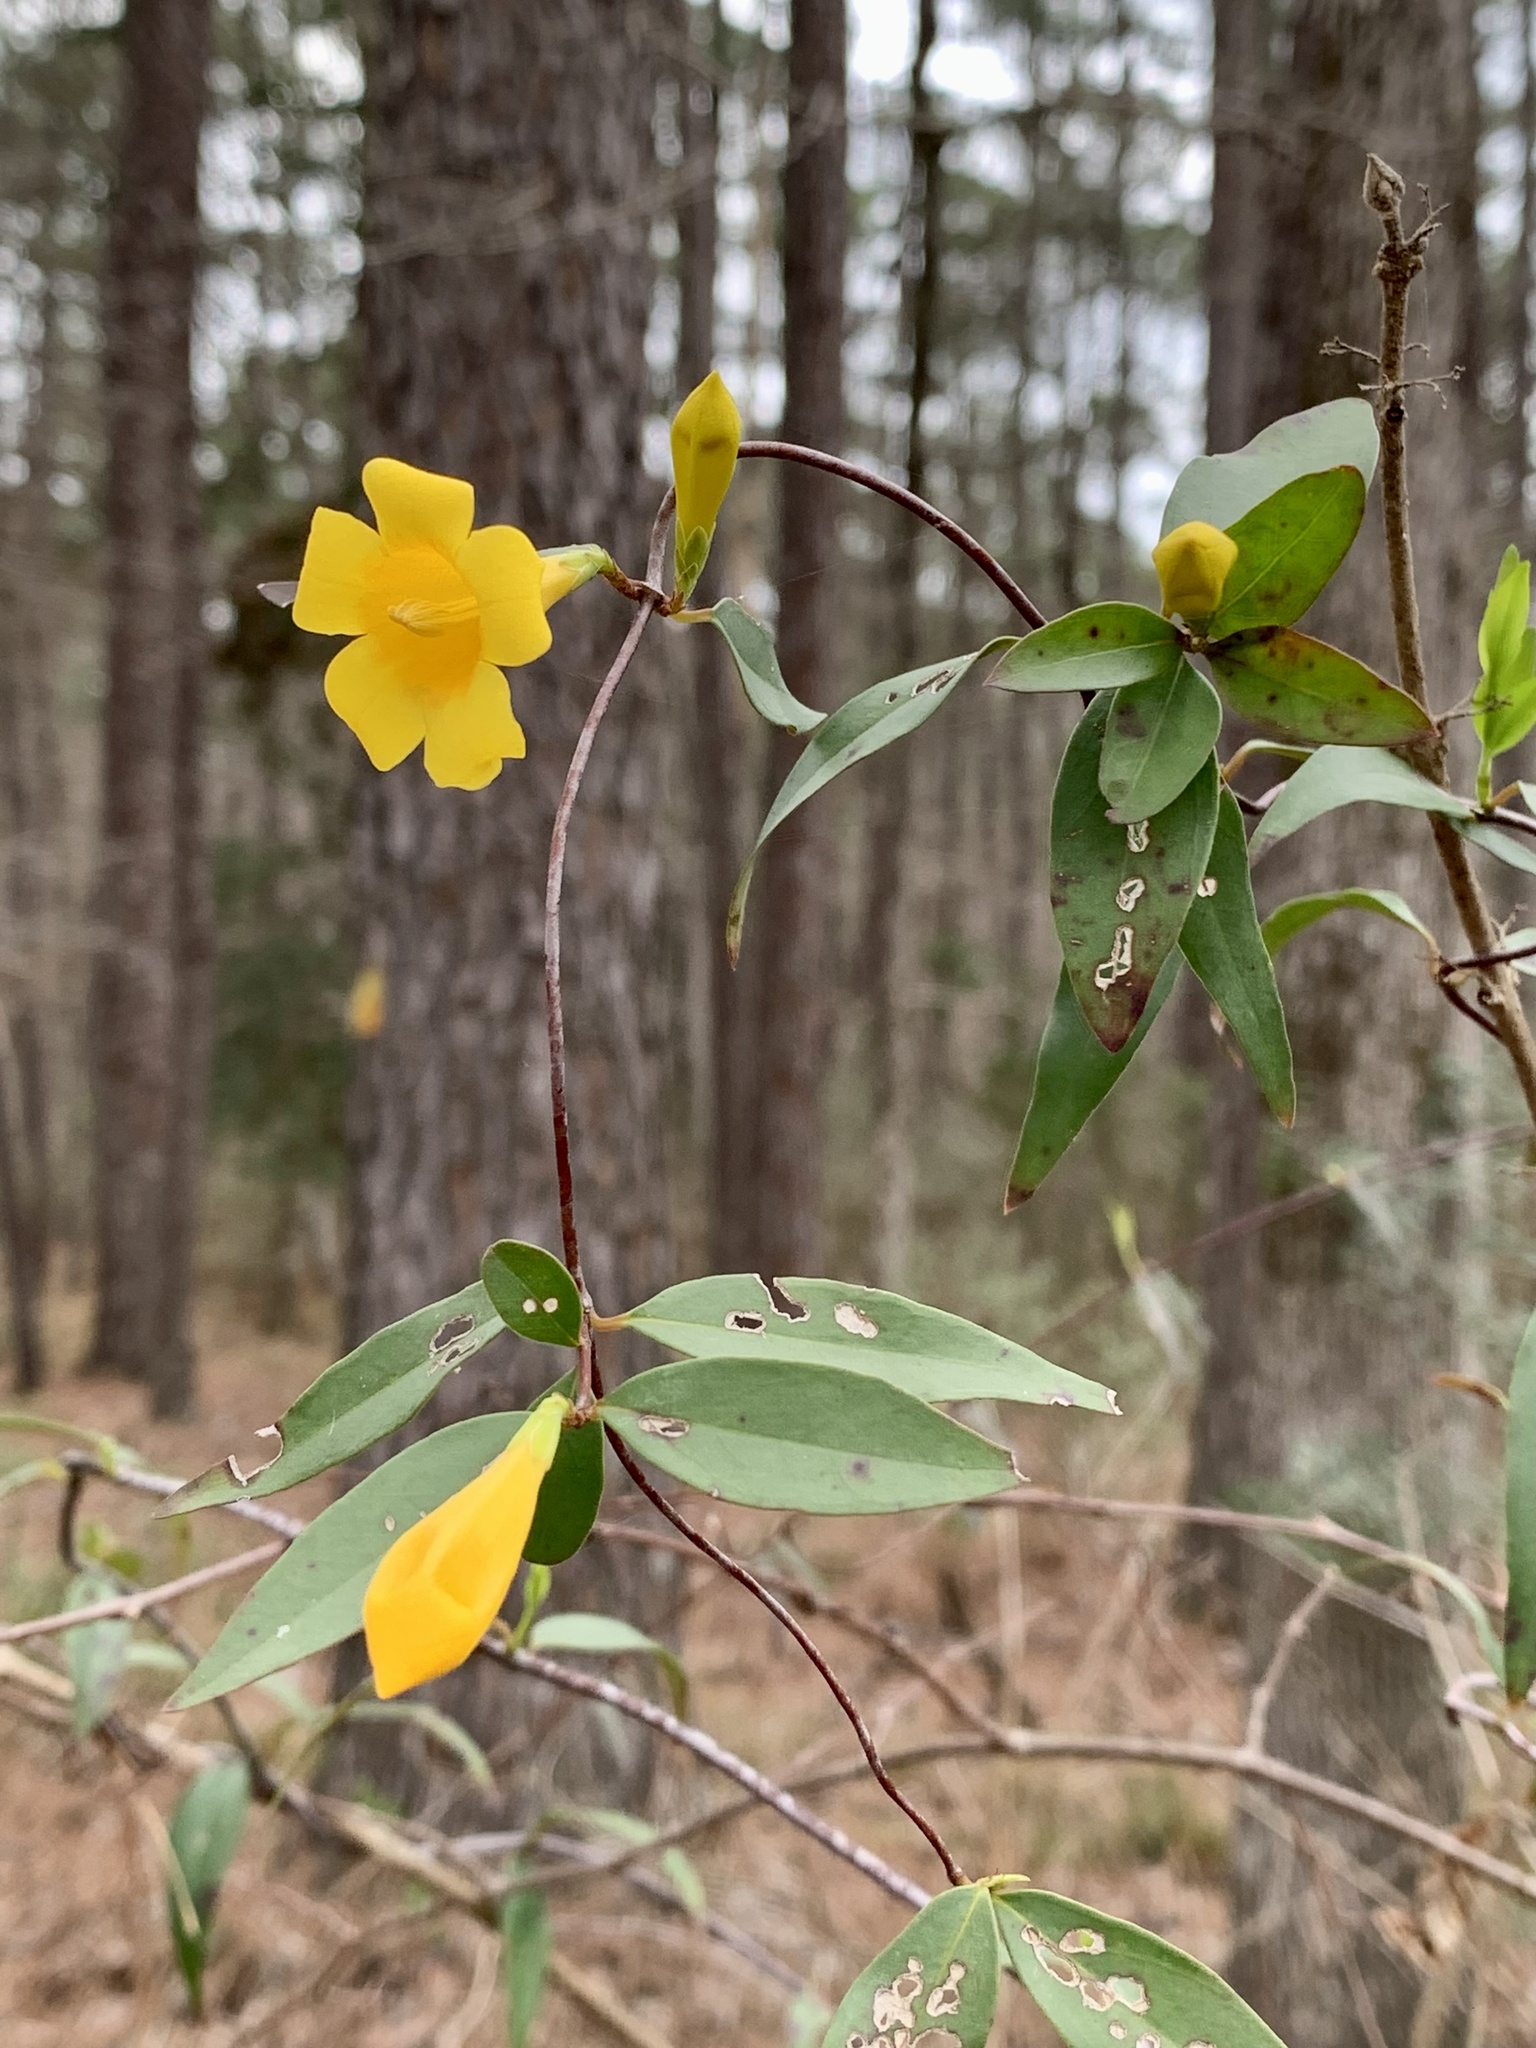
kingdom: Plantae
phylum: Tracheophyta
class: Magnoliopsida
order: Gentianales
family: Gelsemiaceae
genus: Gelsemium
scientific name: Gelsemium sempervirens
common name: Carolina-jasmine
